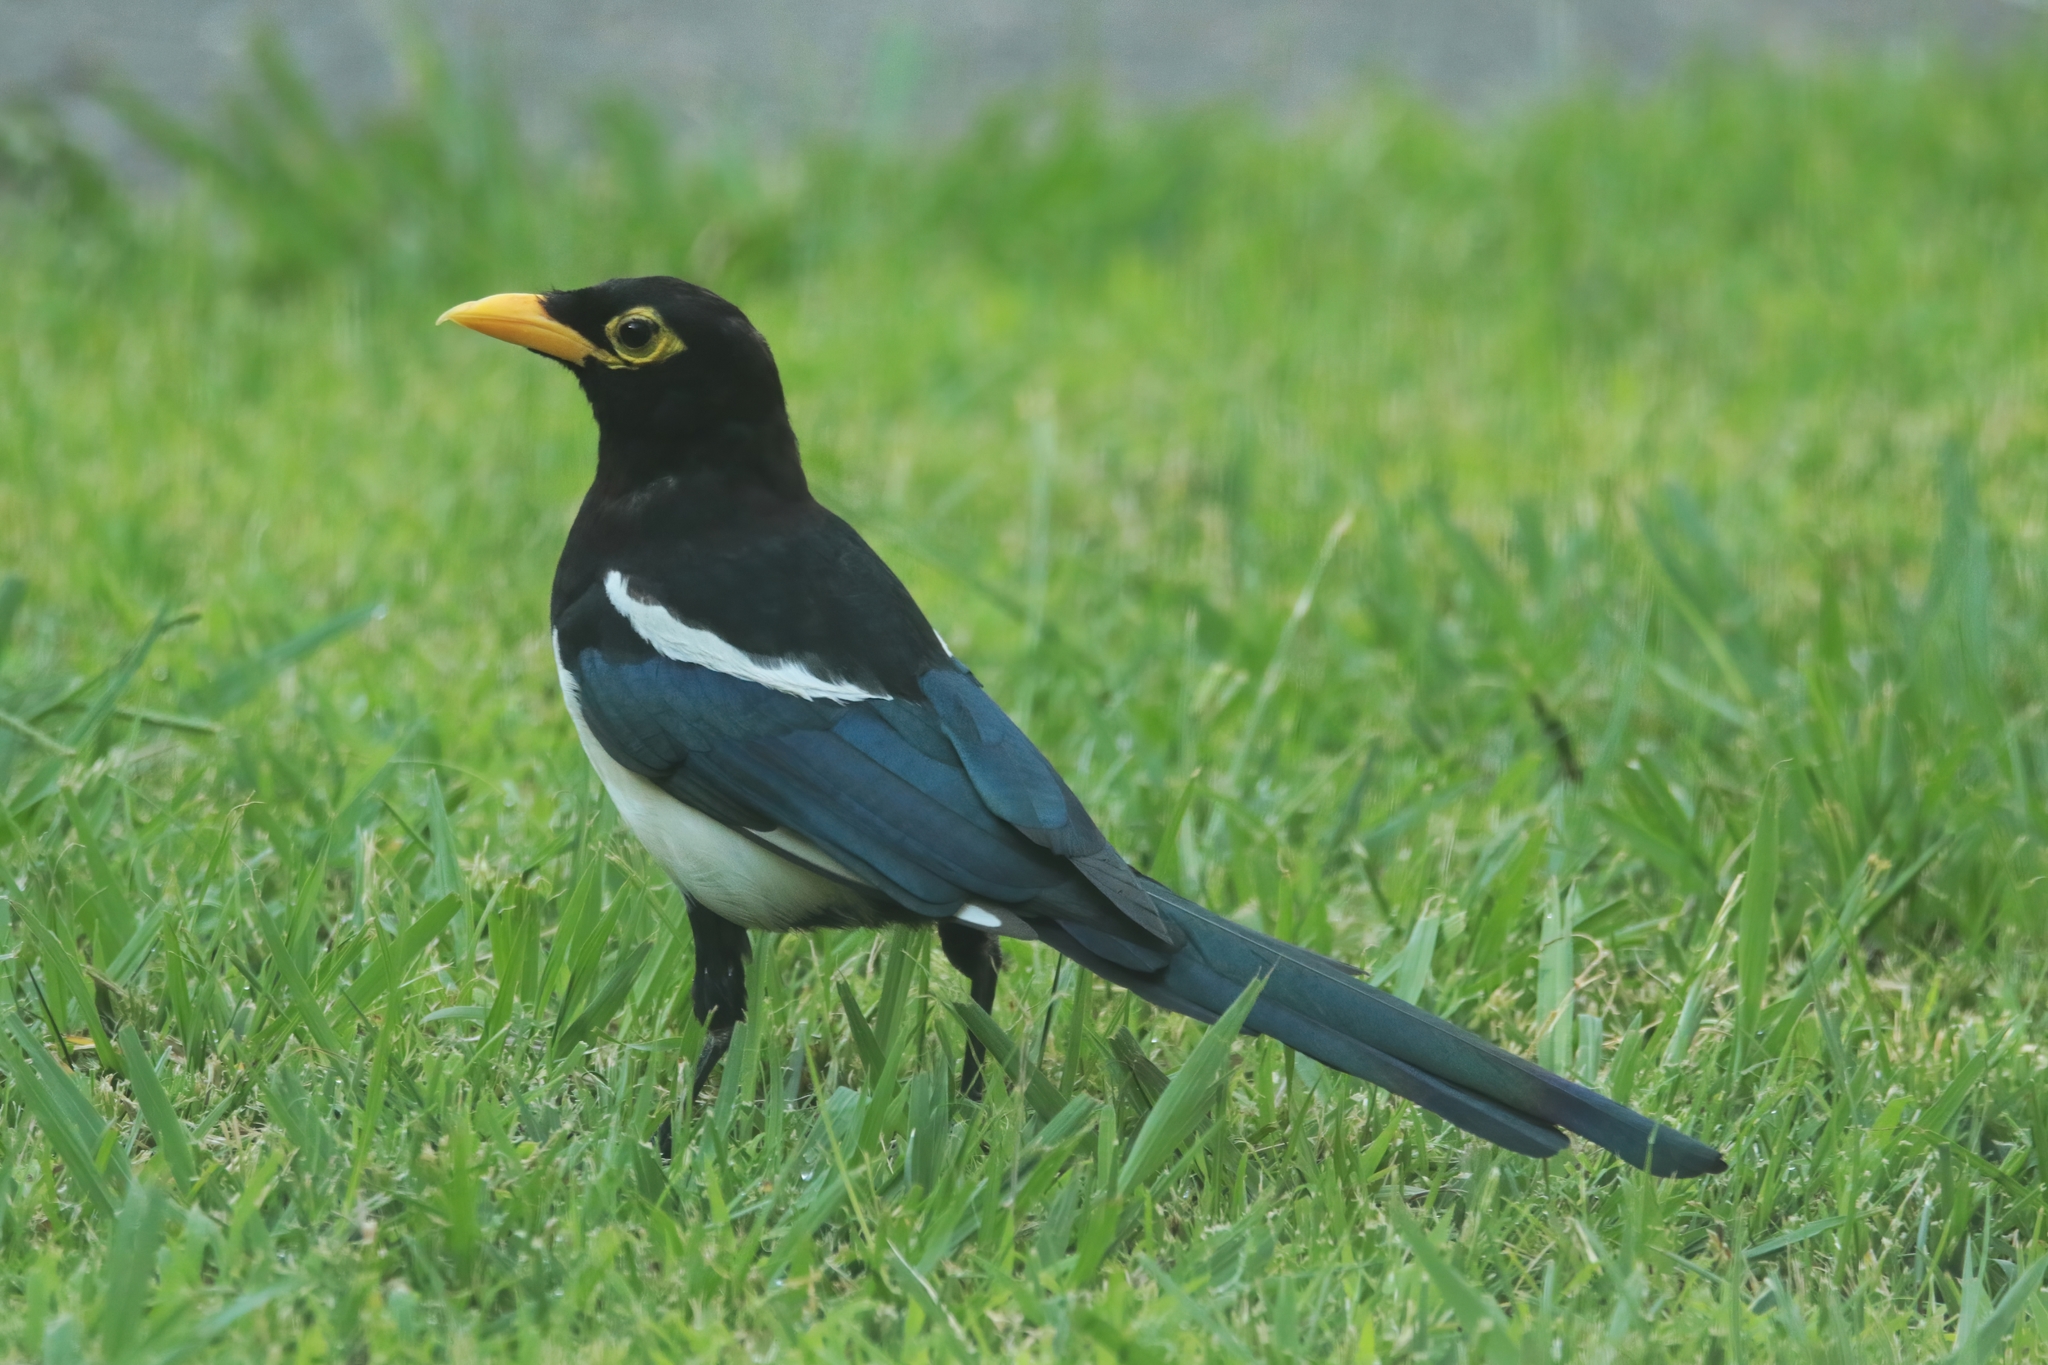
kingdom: Animalia
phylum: Chordata
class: Aves
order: Passeriformes
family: Corvidae
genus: Pica
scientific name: Pica nuttalli
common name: Yellow-billed magpie
